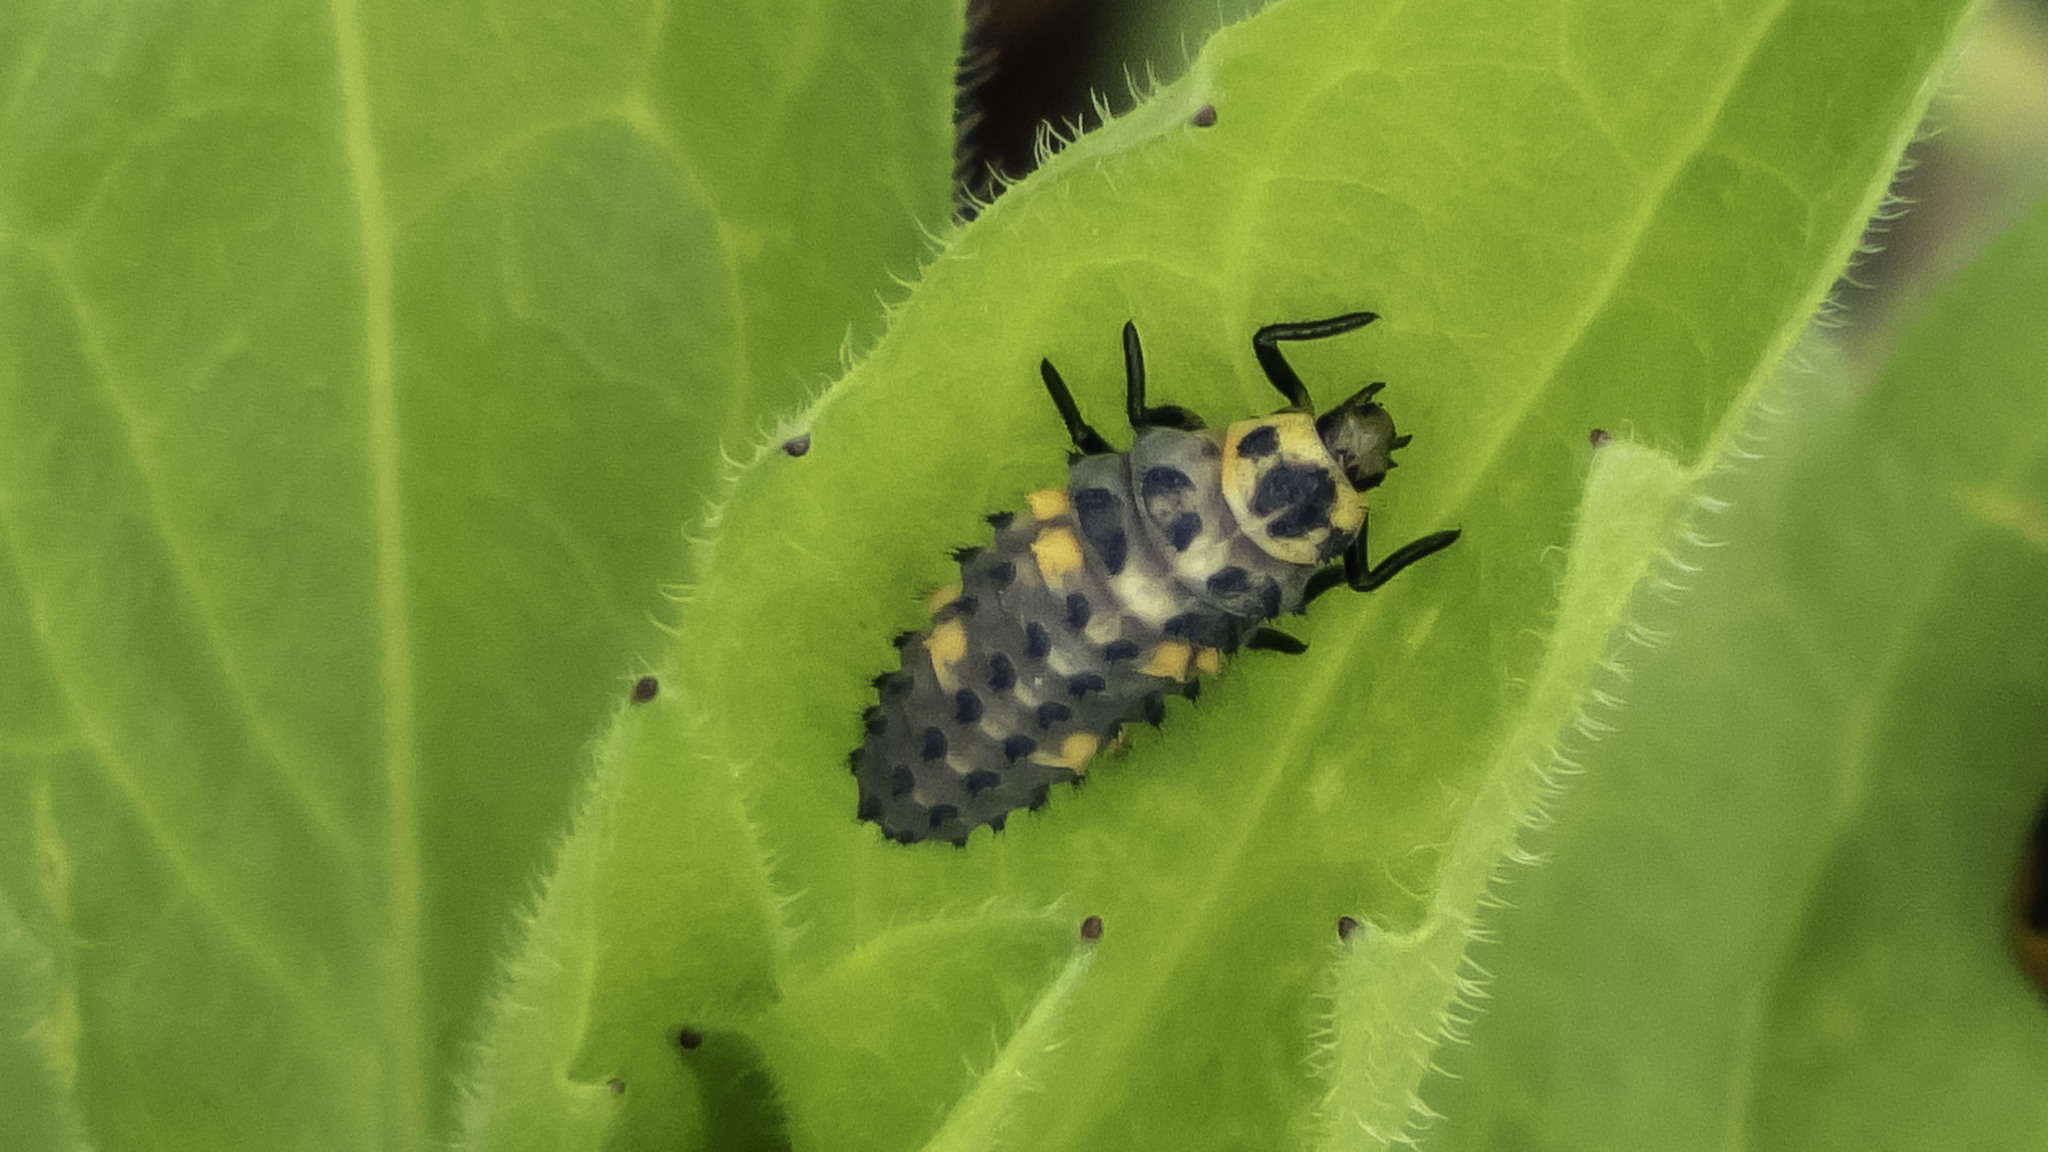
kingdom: Animalia
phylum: Arthropoda
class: Insecta
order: Coleoptera
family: Coccinellidae
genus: Coccinella
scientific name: Coccinella septempunctata
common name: Sevenspotted lady beetle
